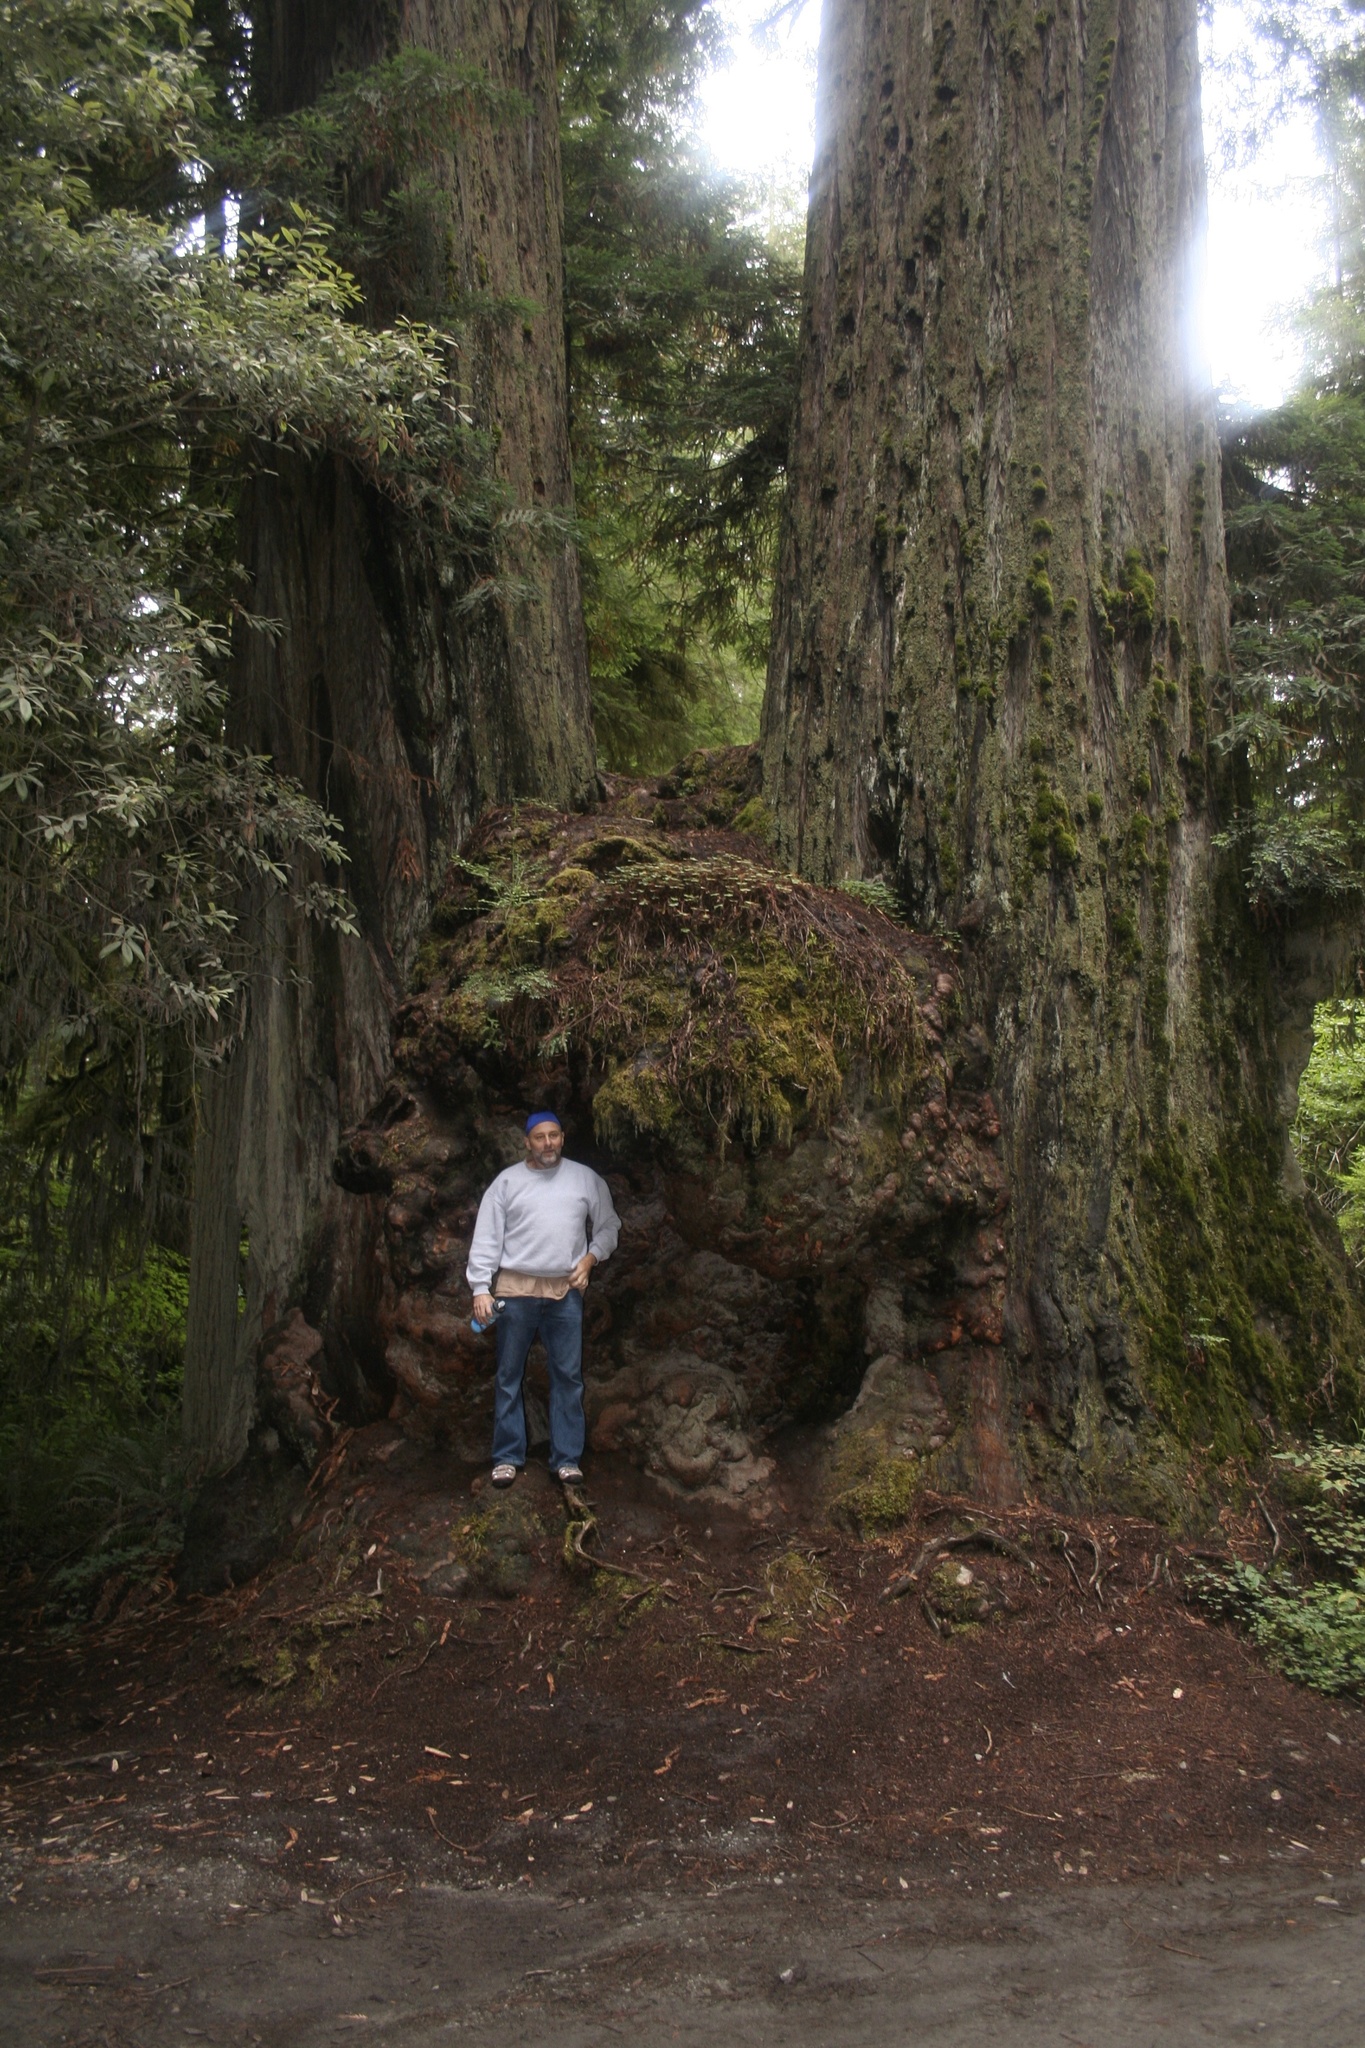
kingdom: Plantae
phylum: Tracheophyta
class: Pinopsida
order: Pinales
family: Cupressaceae
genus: Sequoia
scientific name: Sequoia sempervirens
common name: Coast redwood
